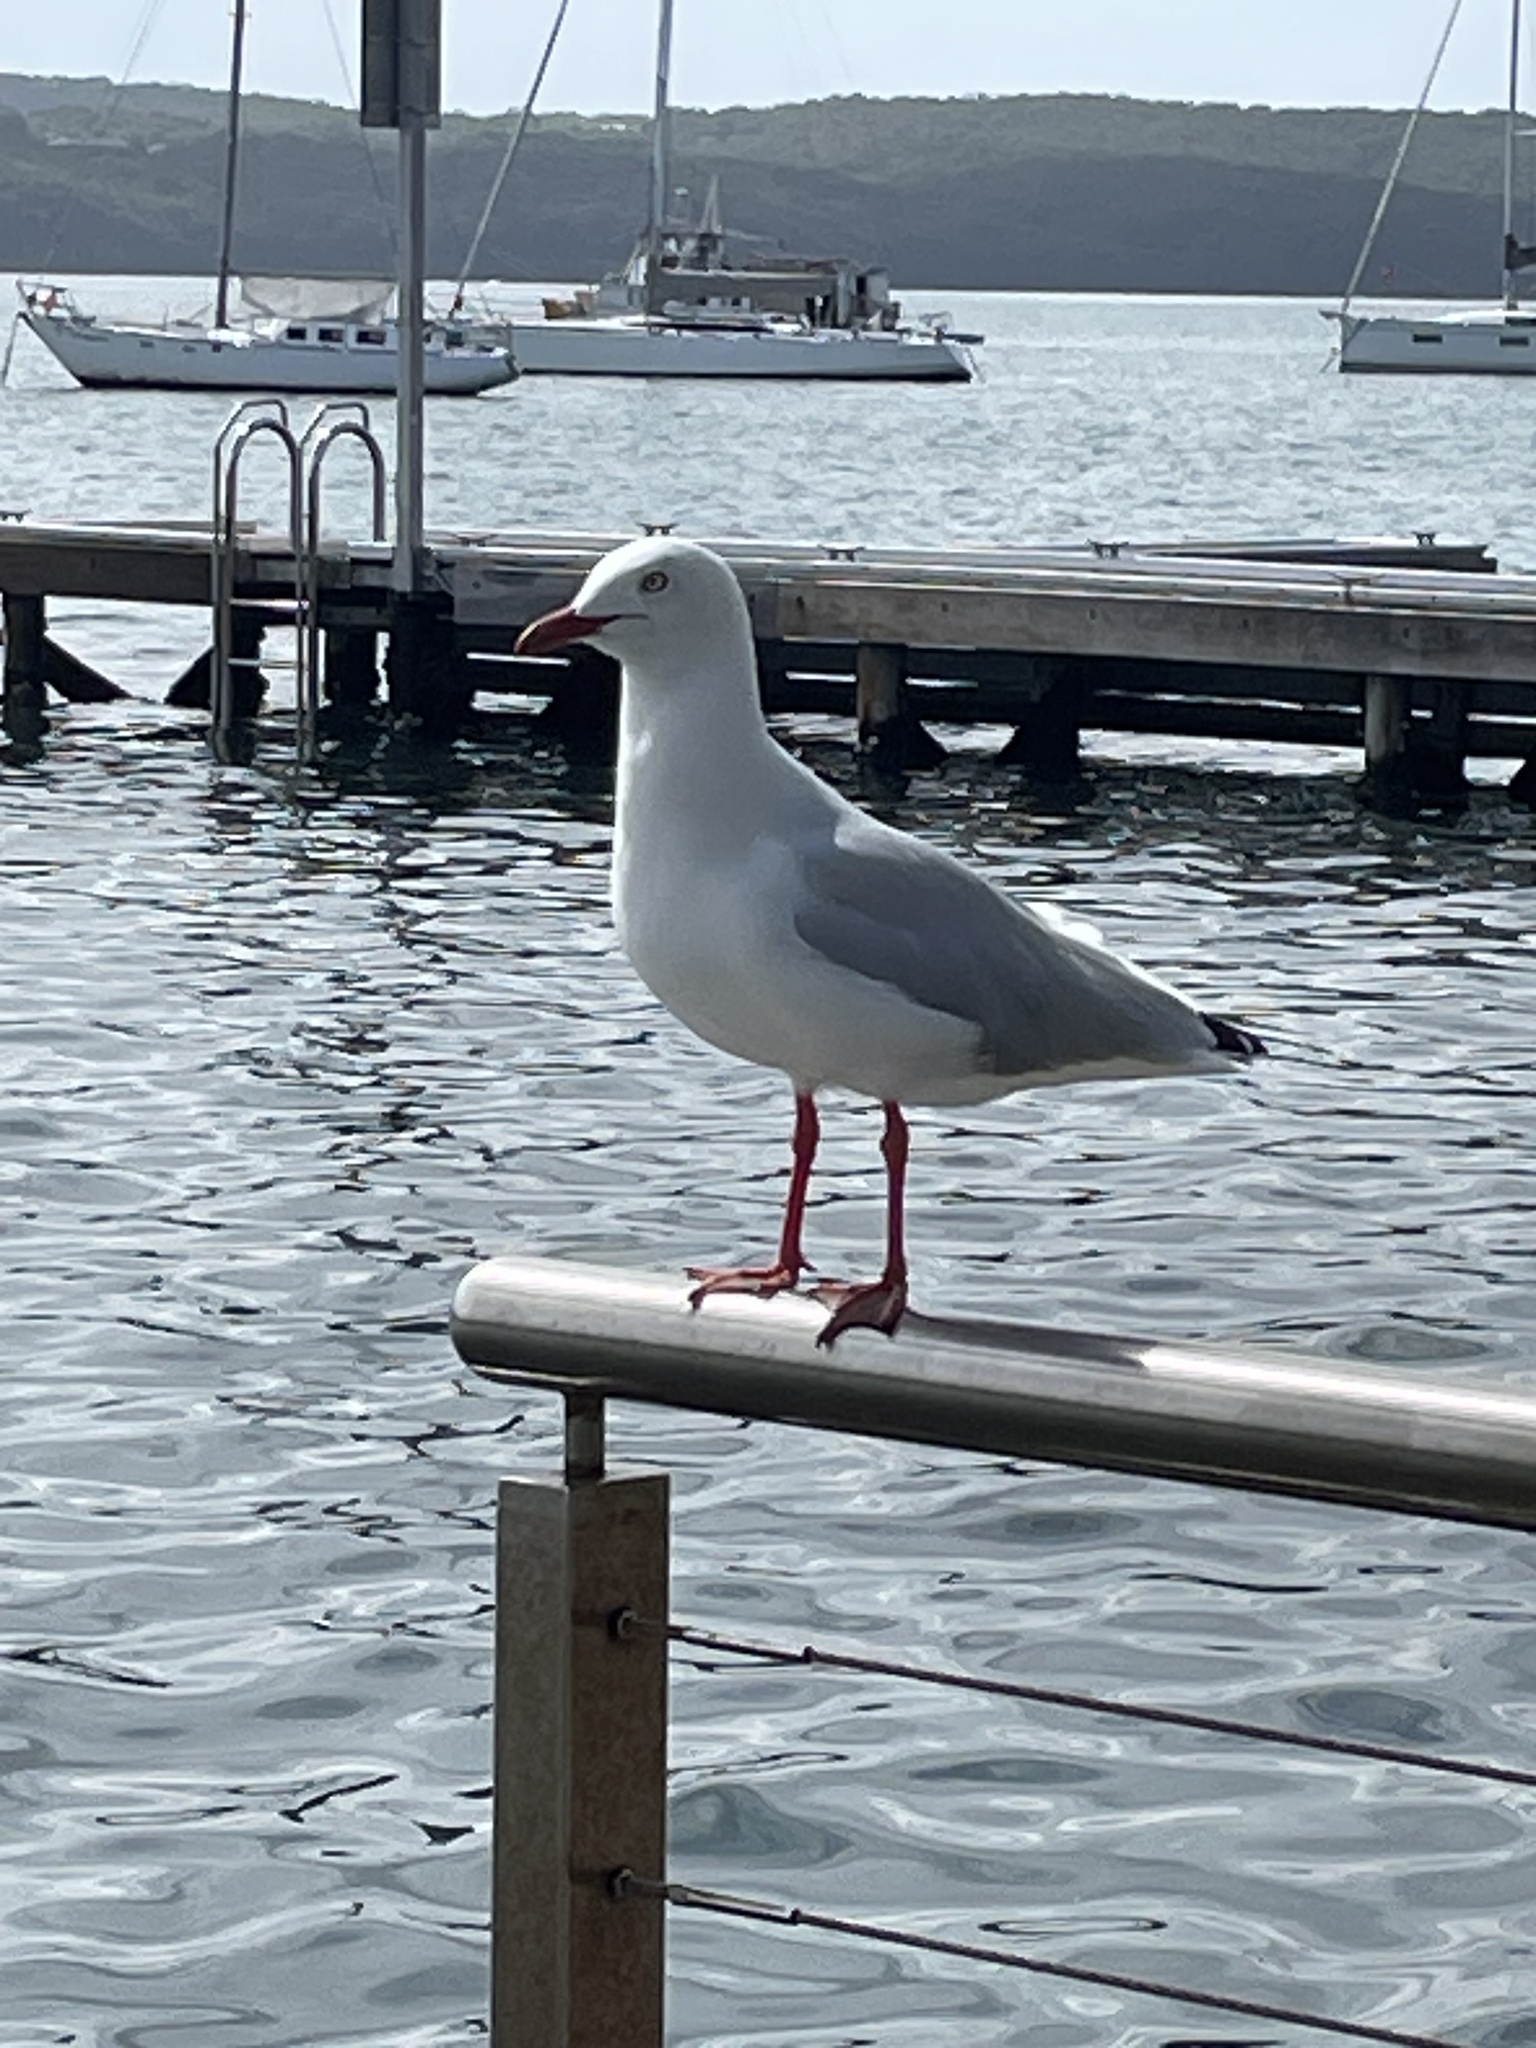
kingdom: Animalia
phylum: Chordata
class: Aves
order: Charadriiformes
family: Laridae
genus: Chroicocephalus
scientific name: Chroicocephalus novaehollandiae
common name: Silver gull
